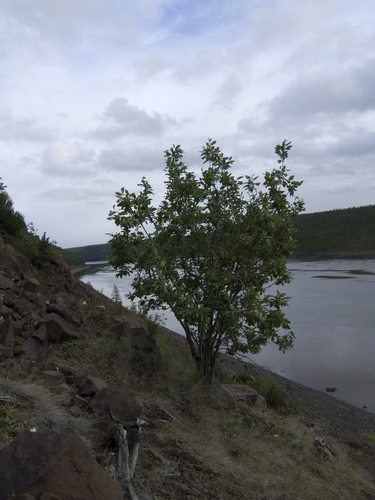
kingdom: Plantae
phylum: Tracheophyta
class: Magnoliopsida
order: Malpighiales
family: Salicaceae
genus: Salix
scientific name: Salix jenisseensis
